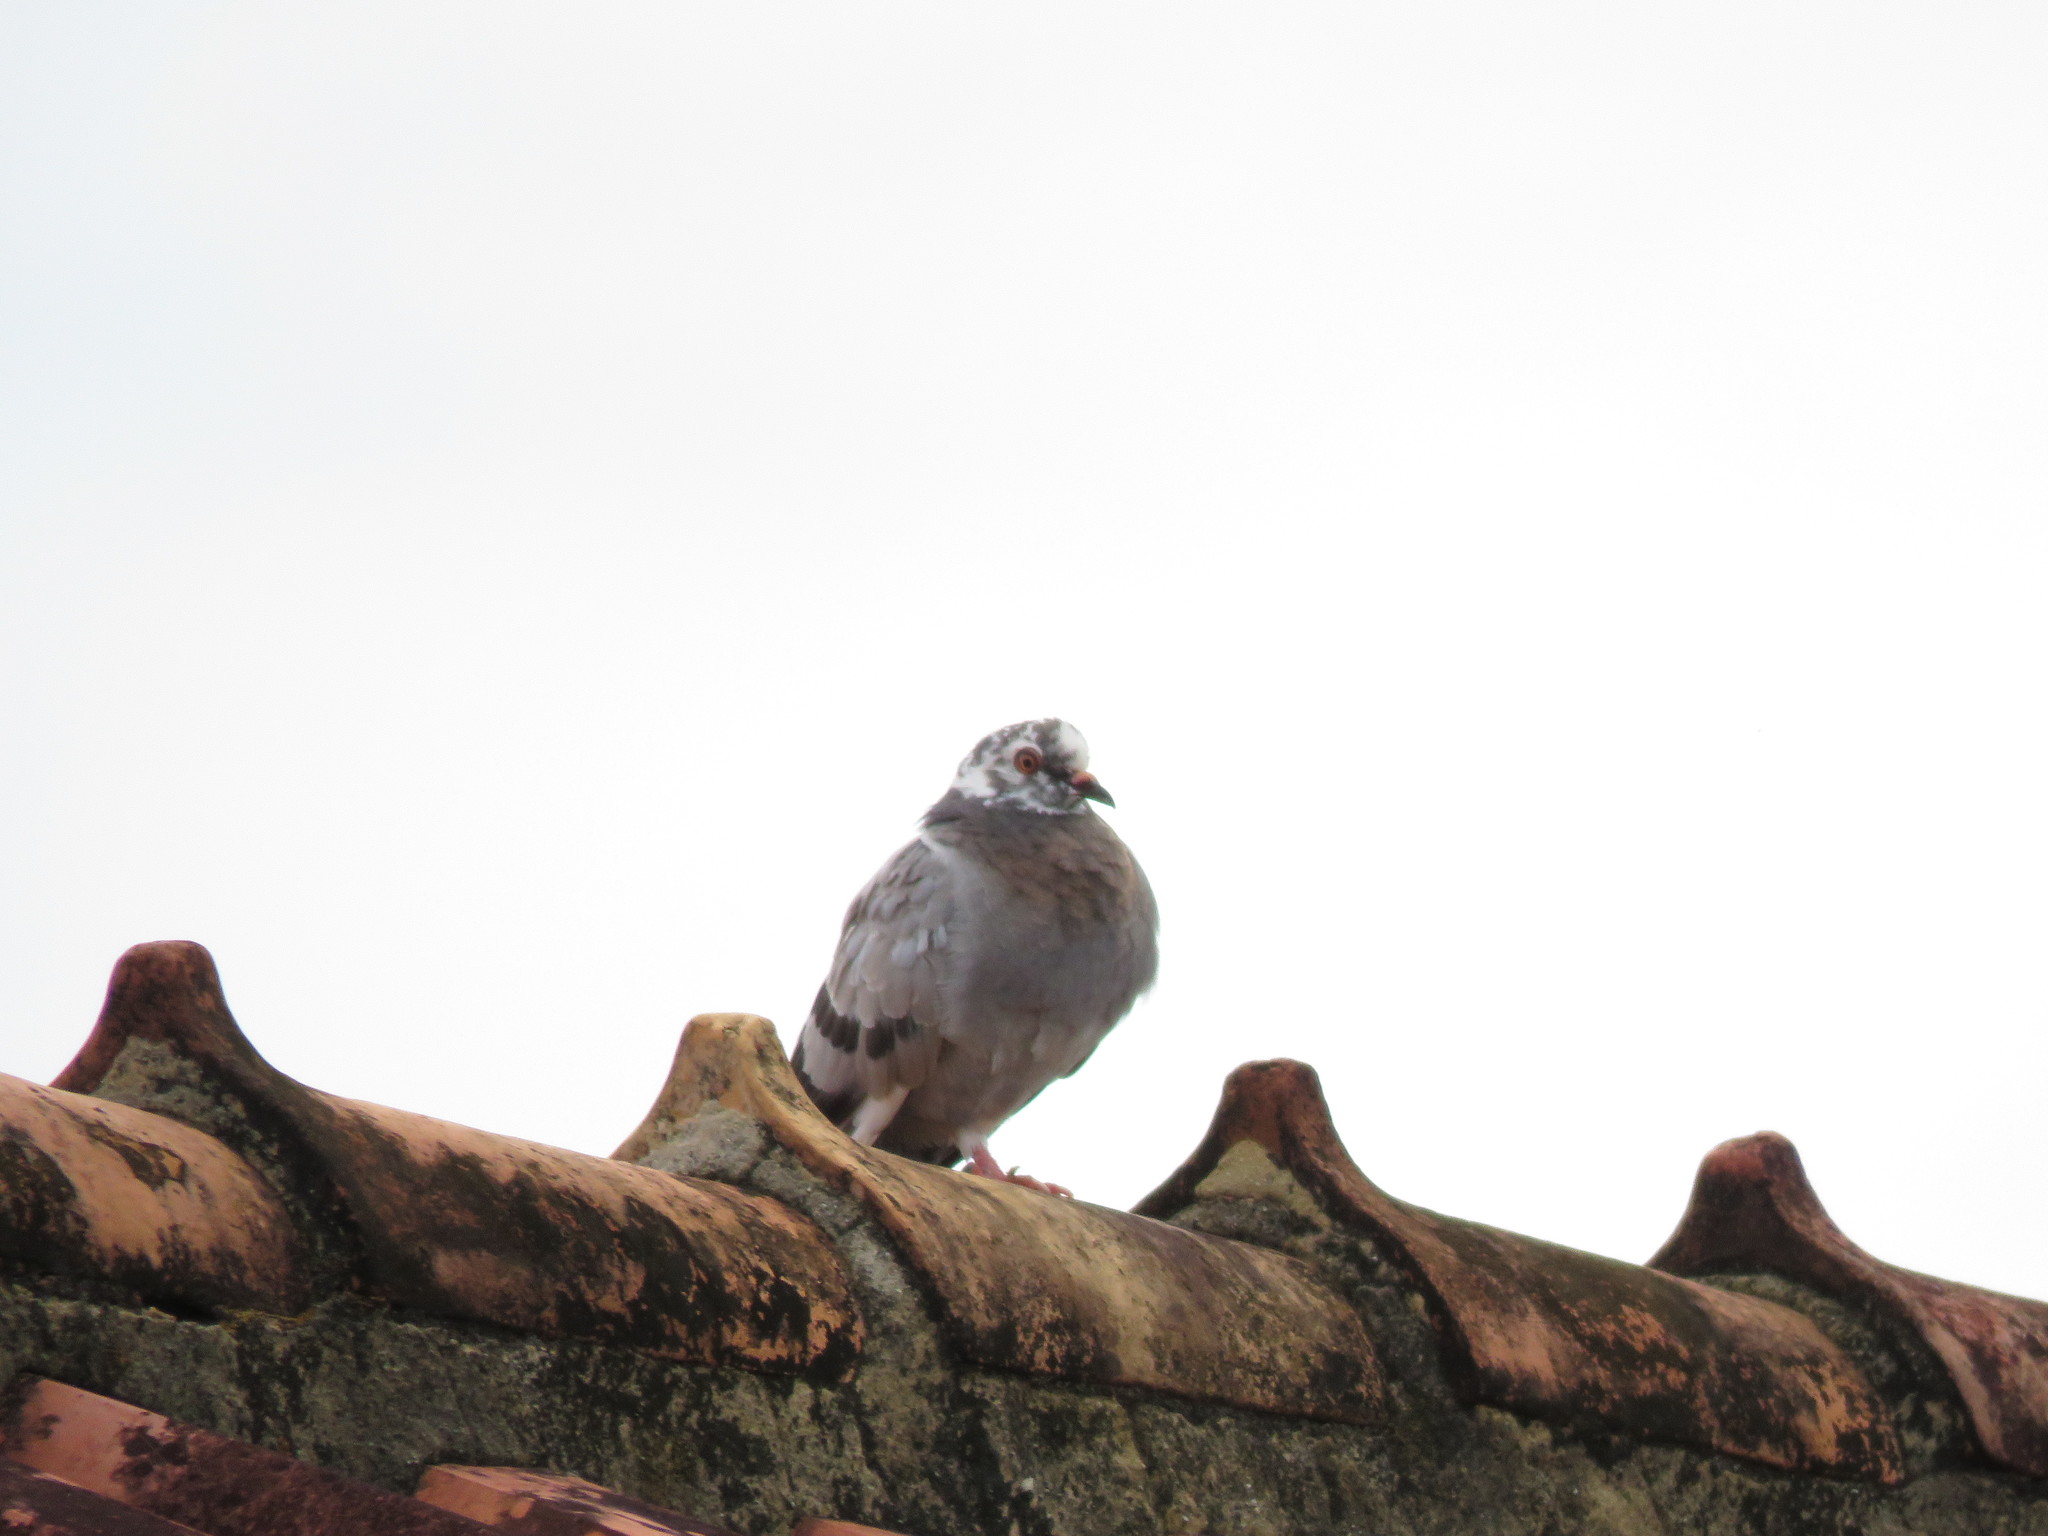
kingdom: Animalia
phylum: Chordata
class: Aves
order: Columbiformes
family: Columbidae
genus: Columba
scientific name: Columba livia
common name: Rock pigeon
